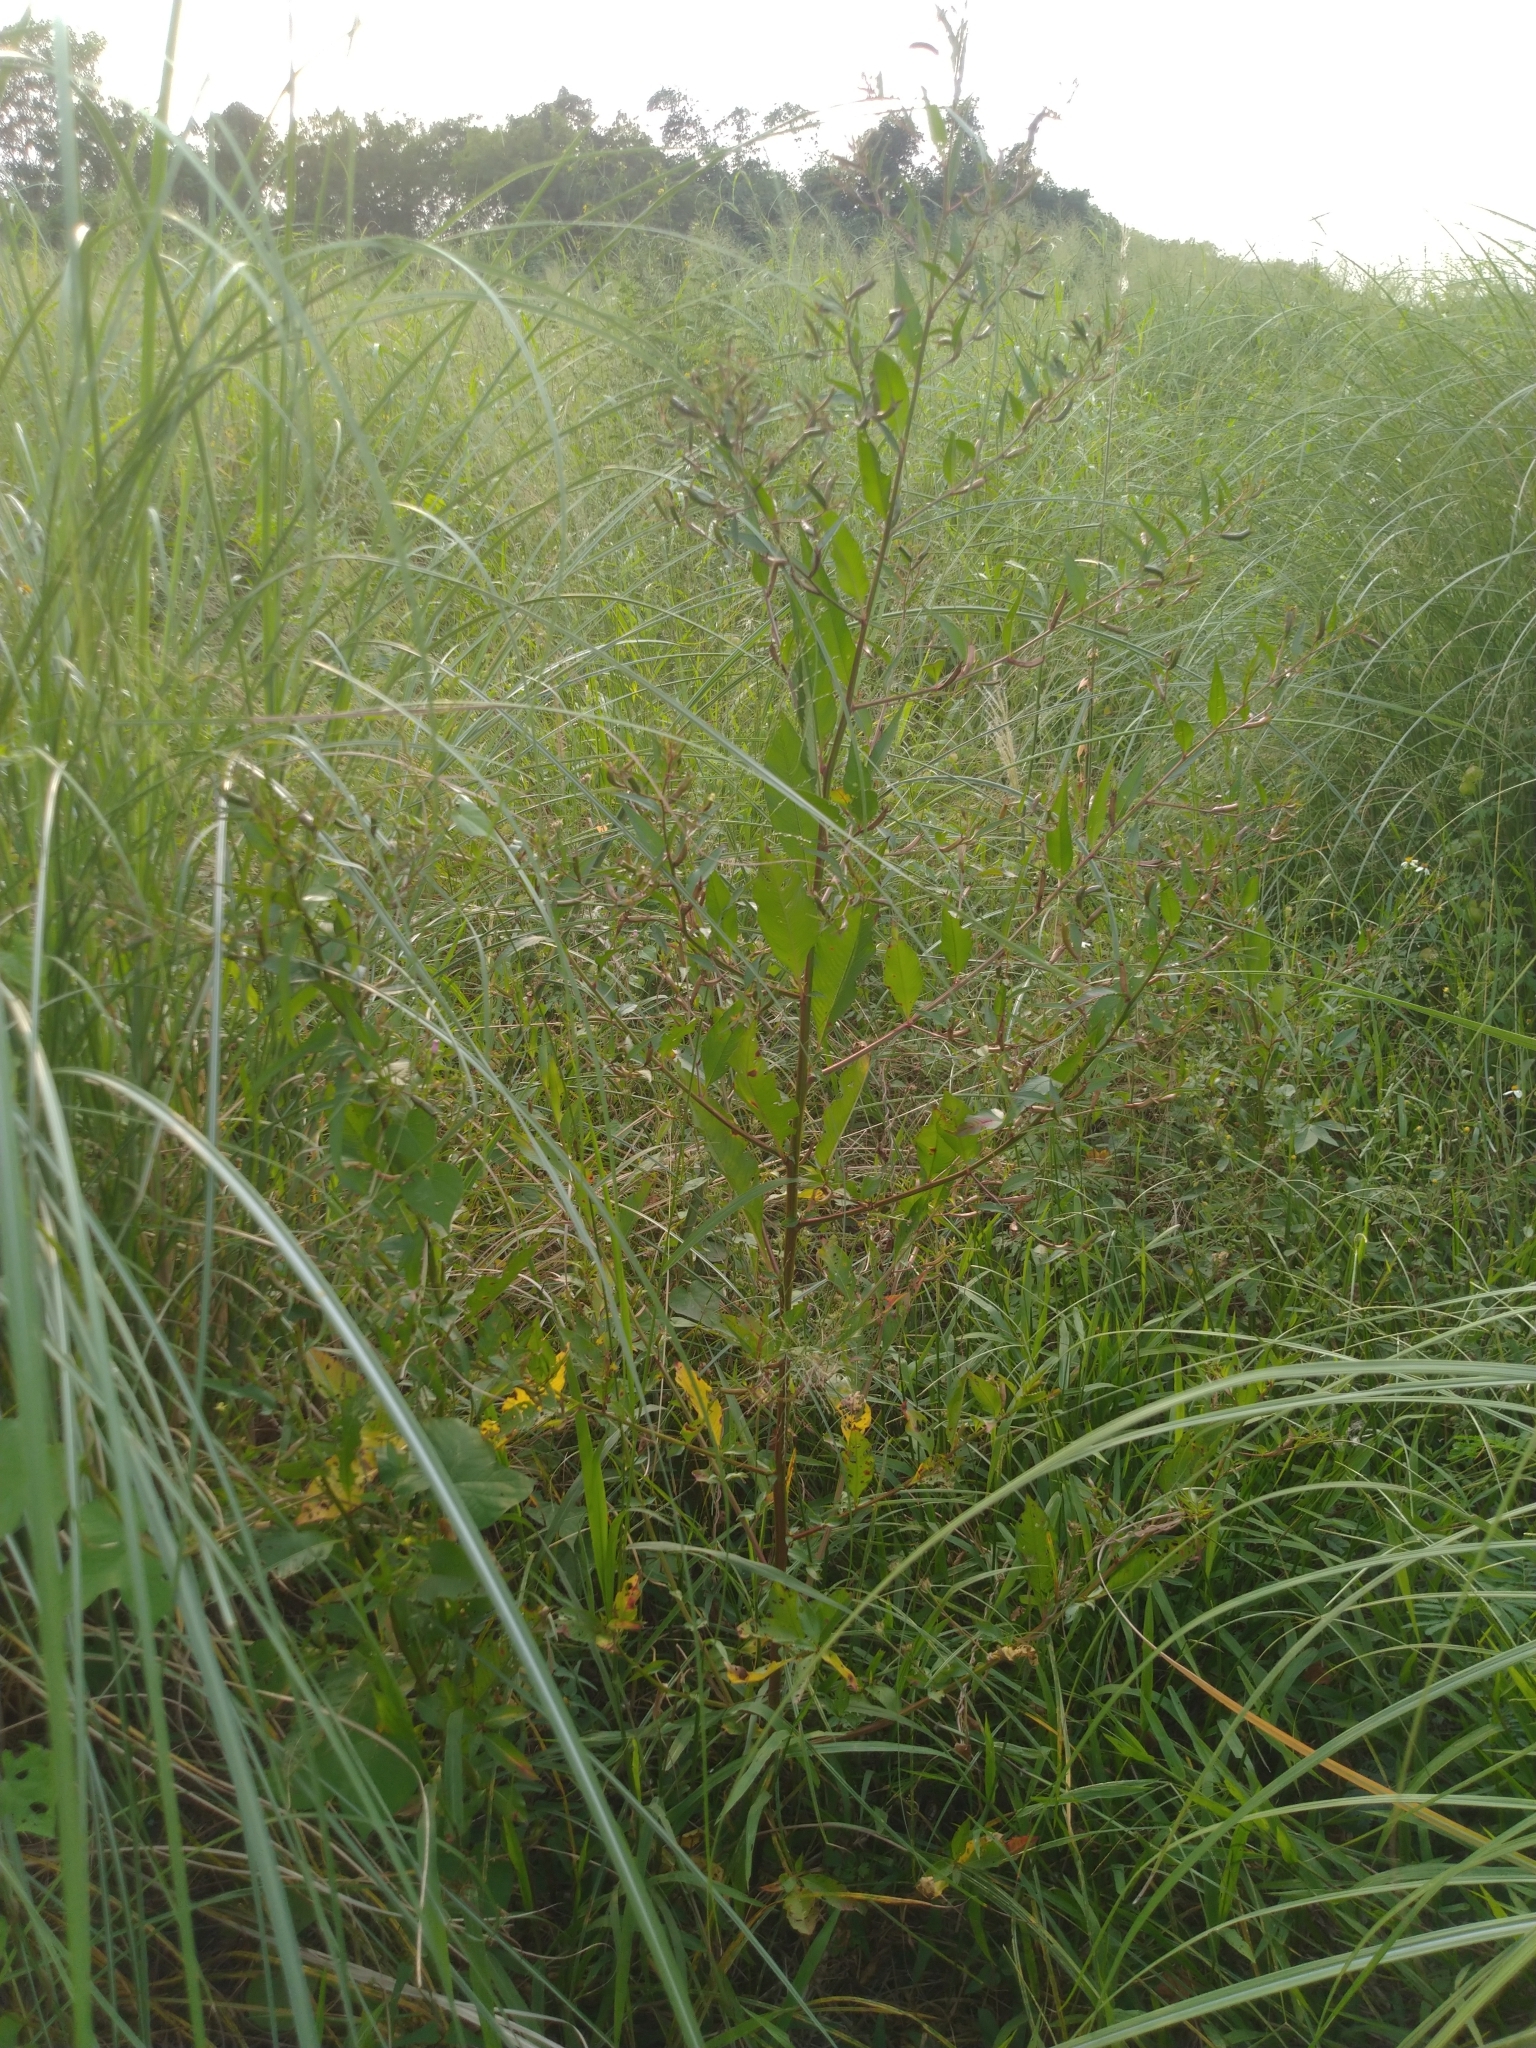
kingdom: Plantae
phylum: Tracheophyta
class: Magnoliopsida
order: Myrtales
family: Onagraceae
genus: Ludwigia
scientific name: Ludwigia erecta
